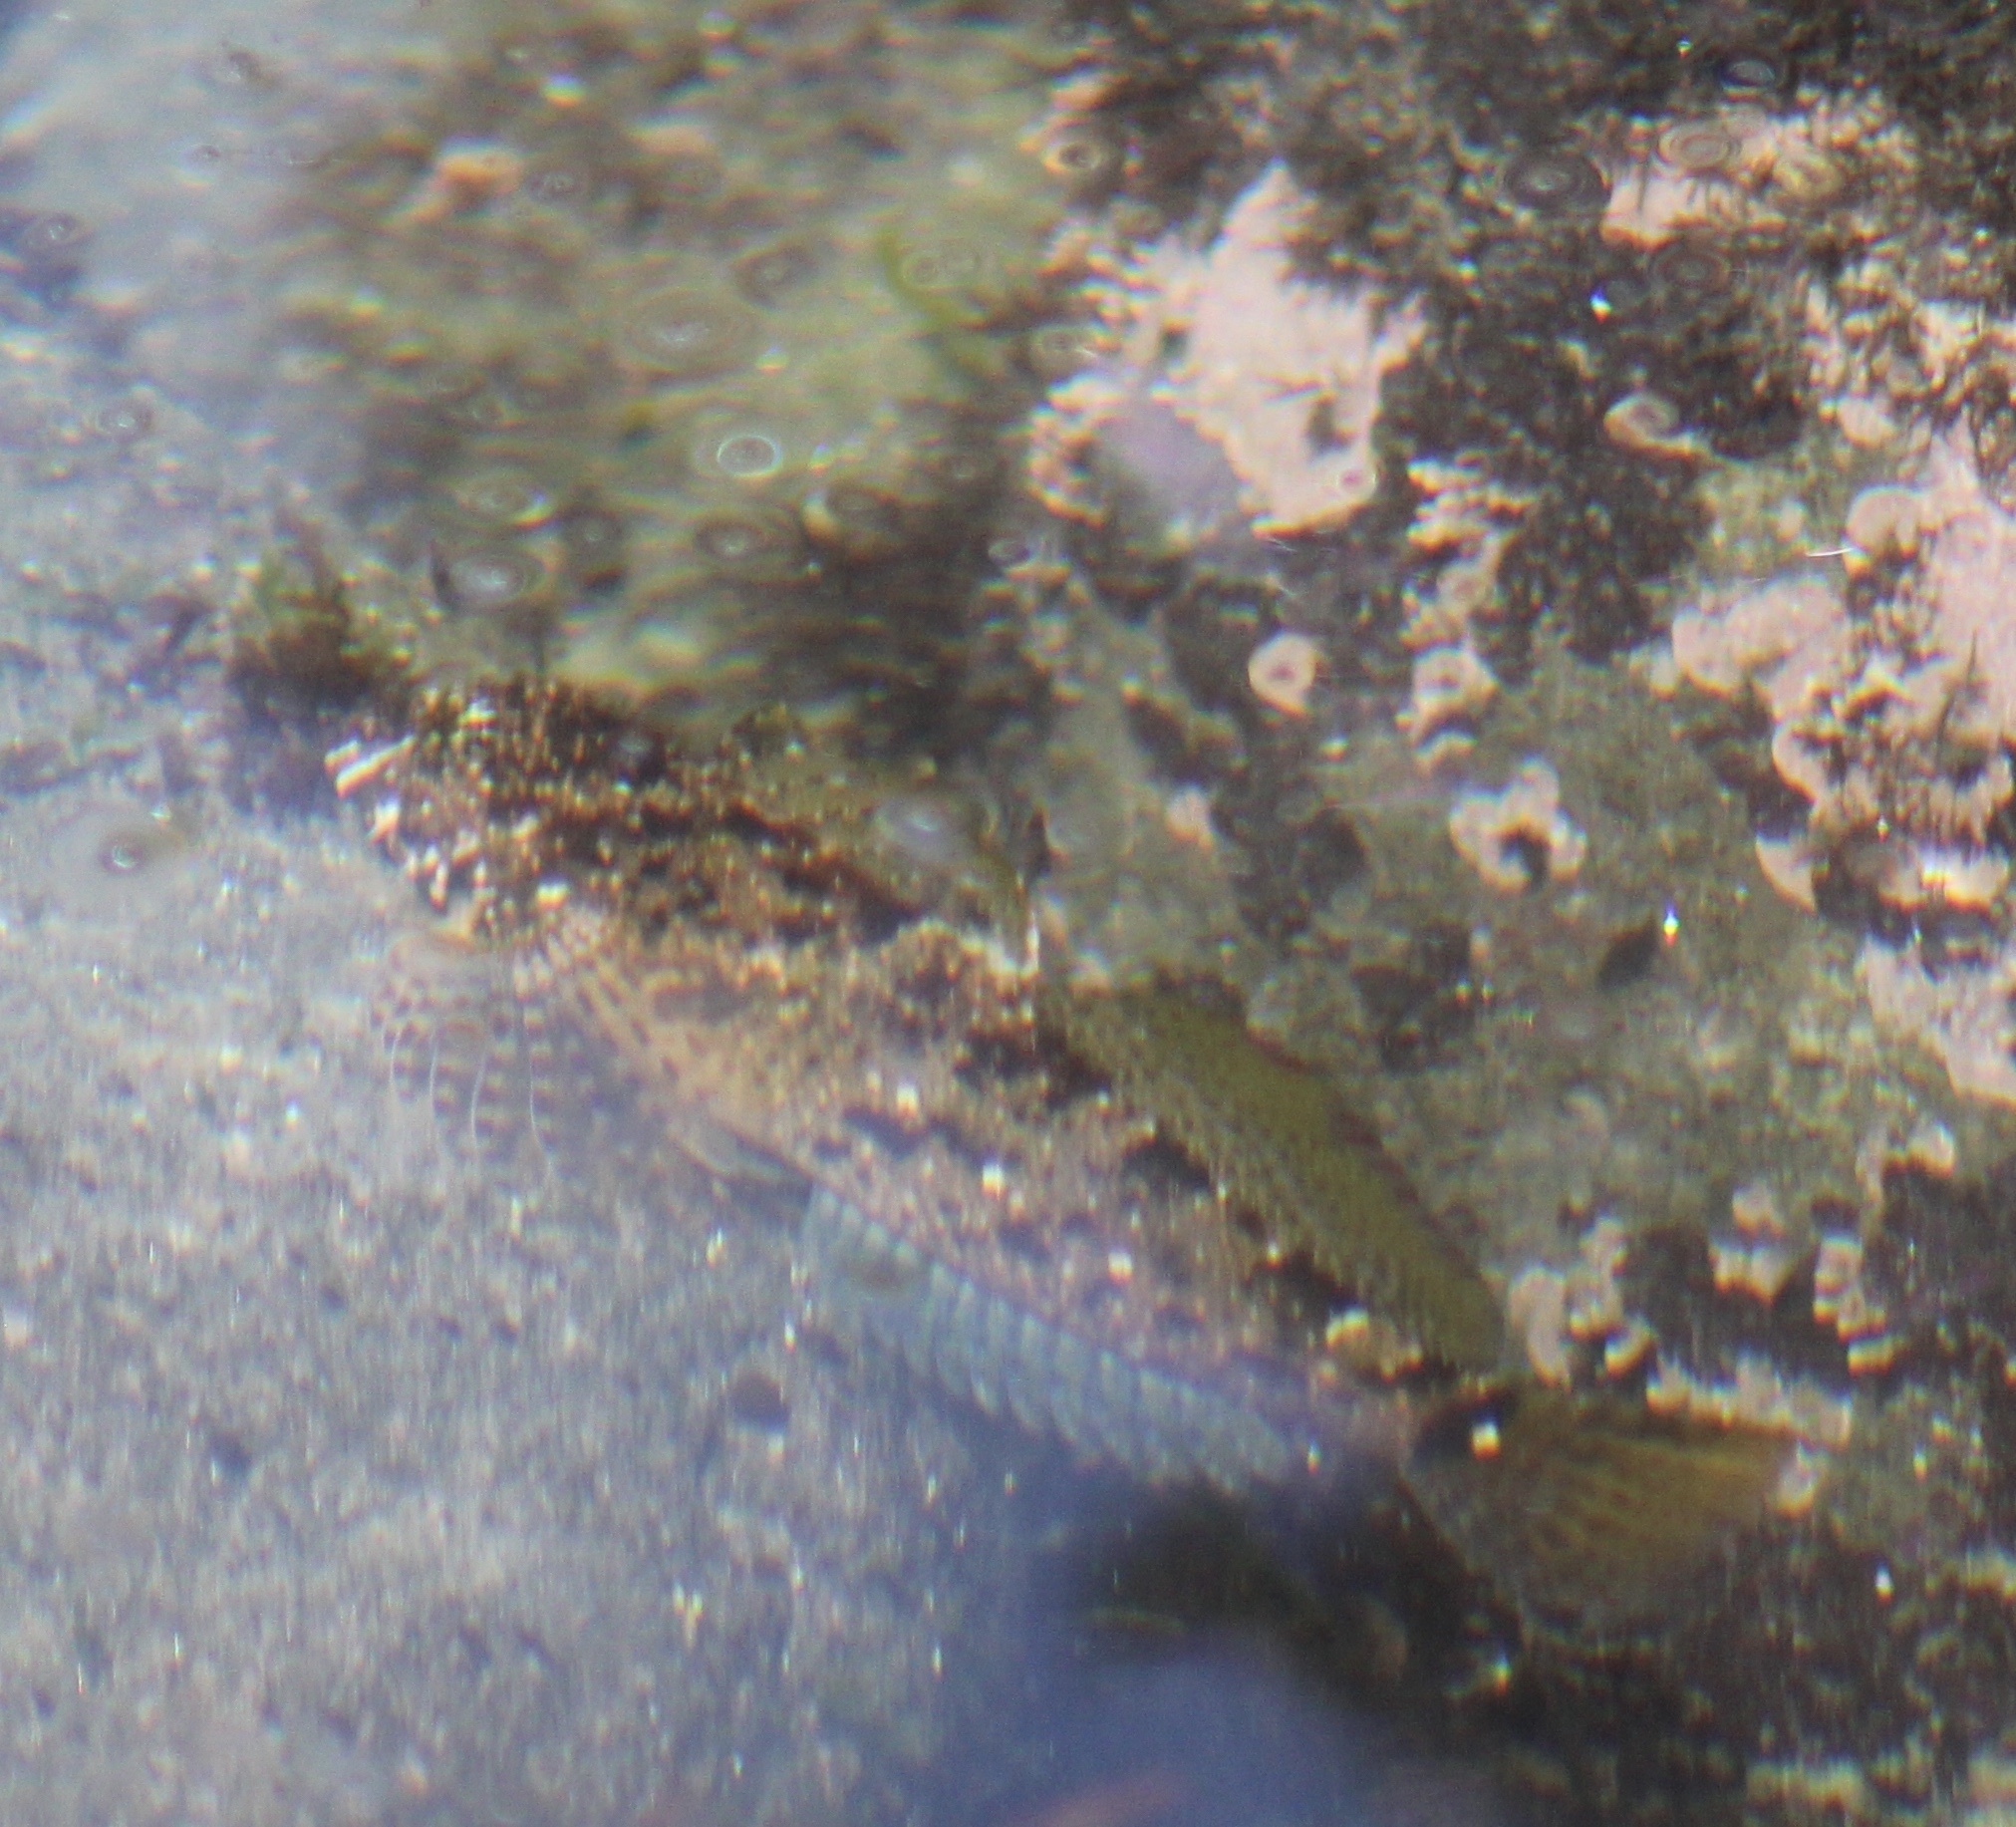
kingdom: Animalia
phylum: Chordata
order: Scorpaeniformes
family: Cottidae
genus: Clinocottus
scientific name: Clinocottus analis
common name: Woolly sculpin
